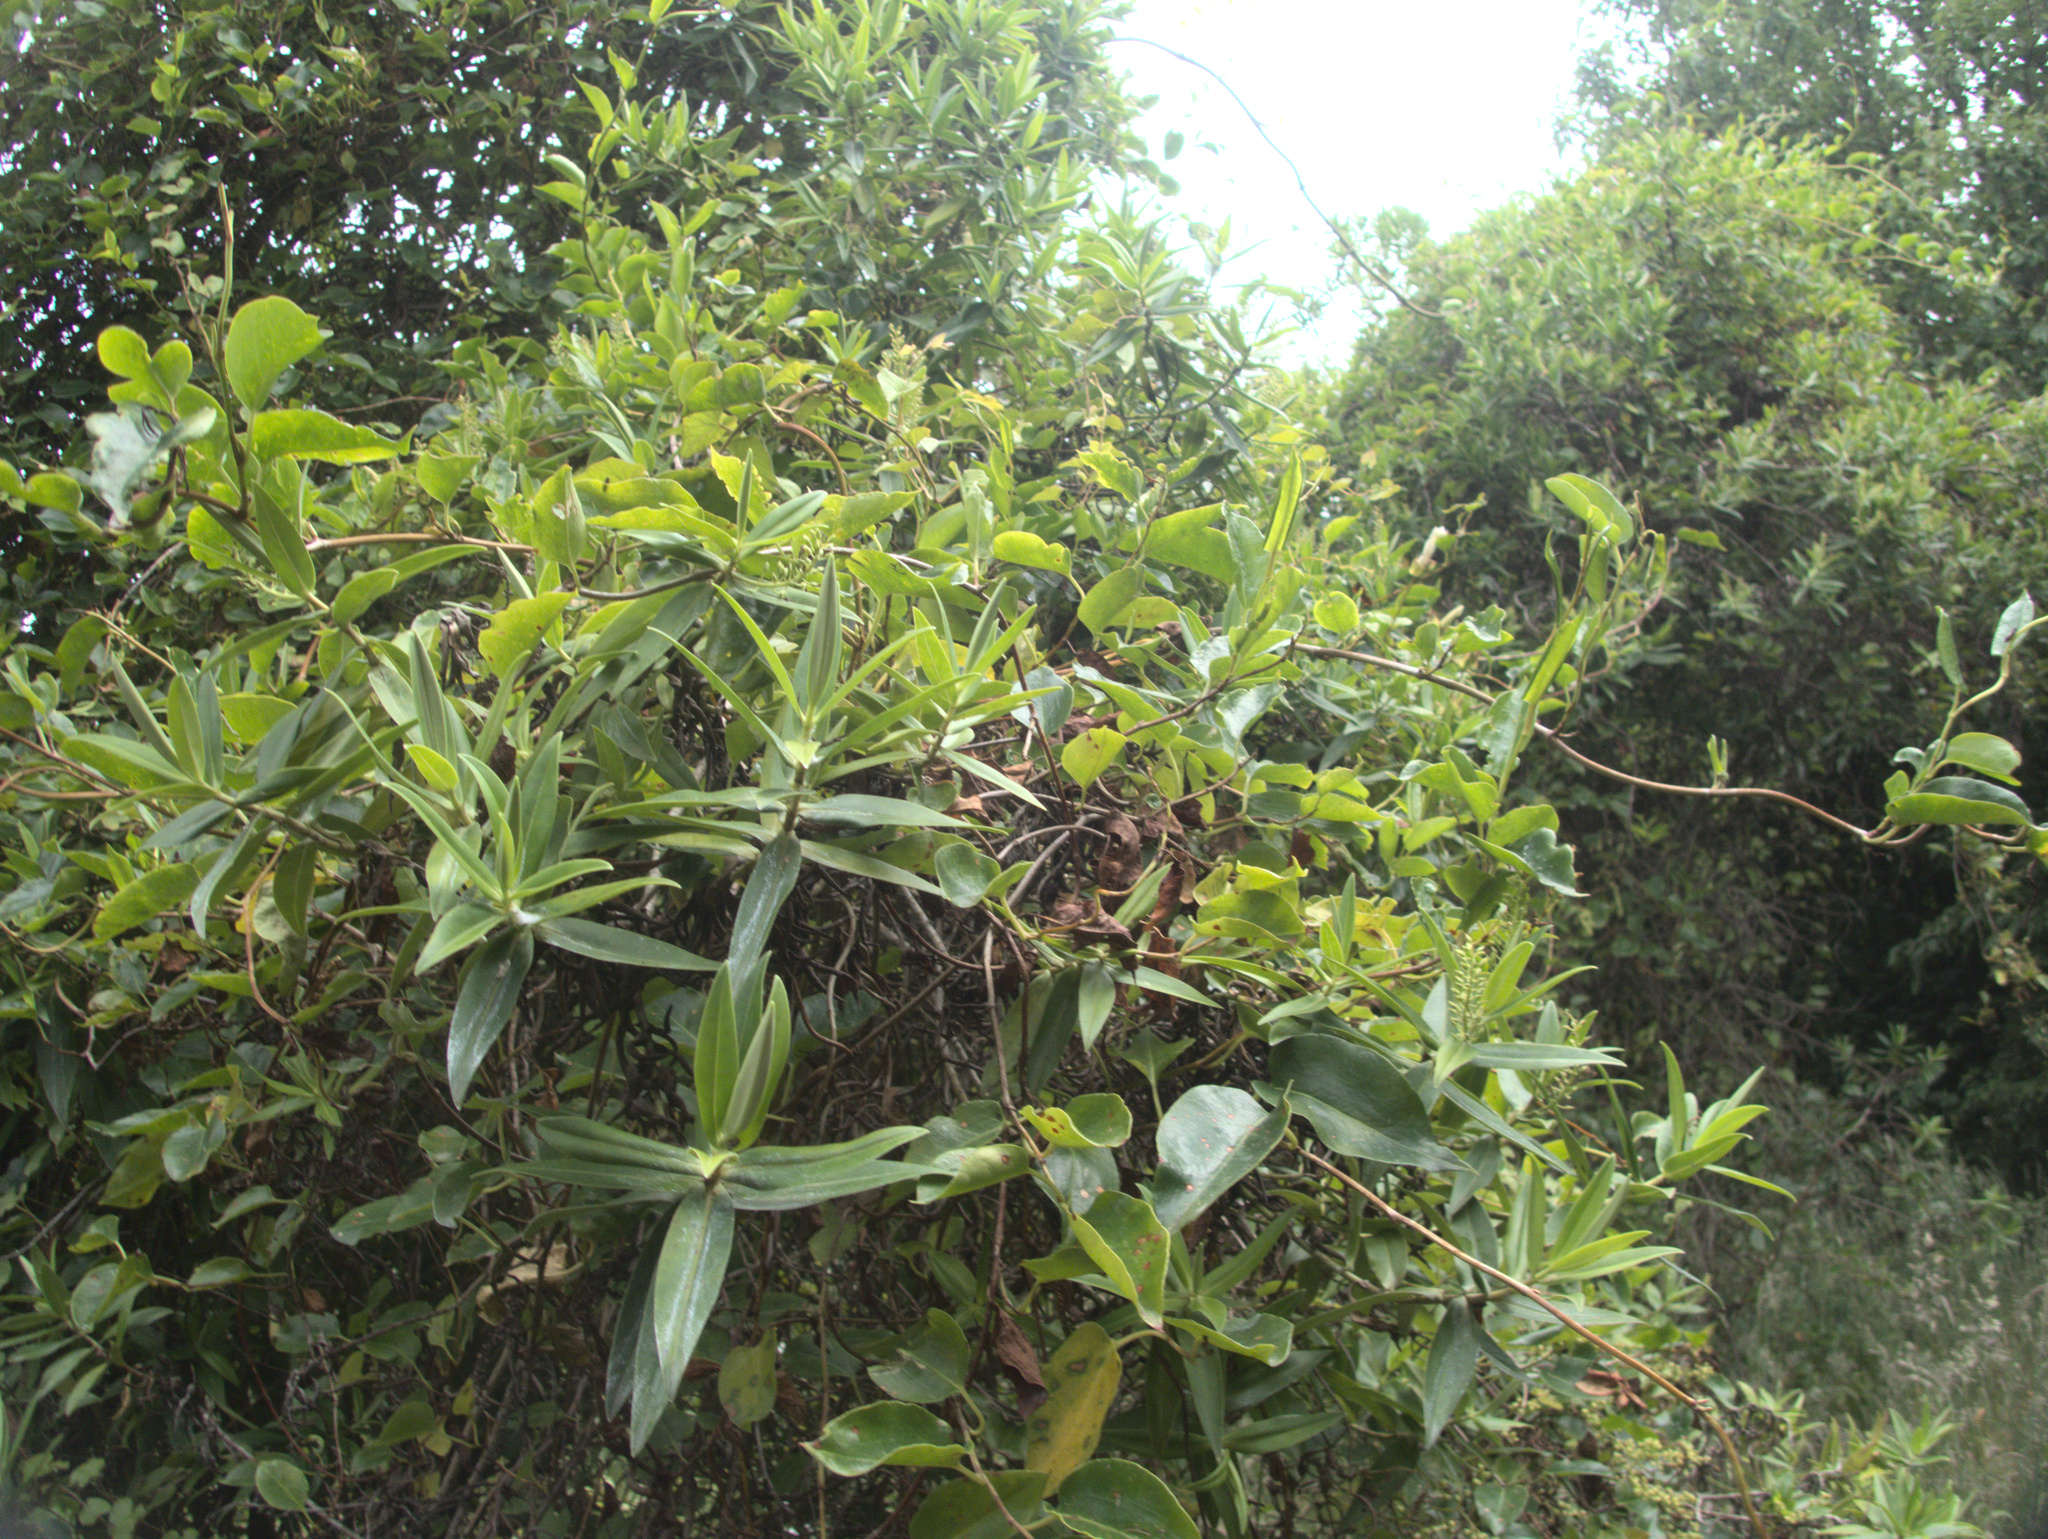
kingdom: Plantae
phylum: Tracheophyta
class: Magnoliopsida
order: Caryophyllales
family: Polygonaceae
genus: Muehlenbeckia
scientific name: Muehlenbeckia australis
